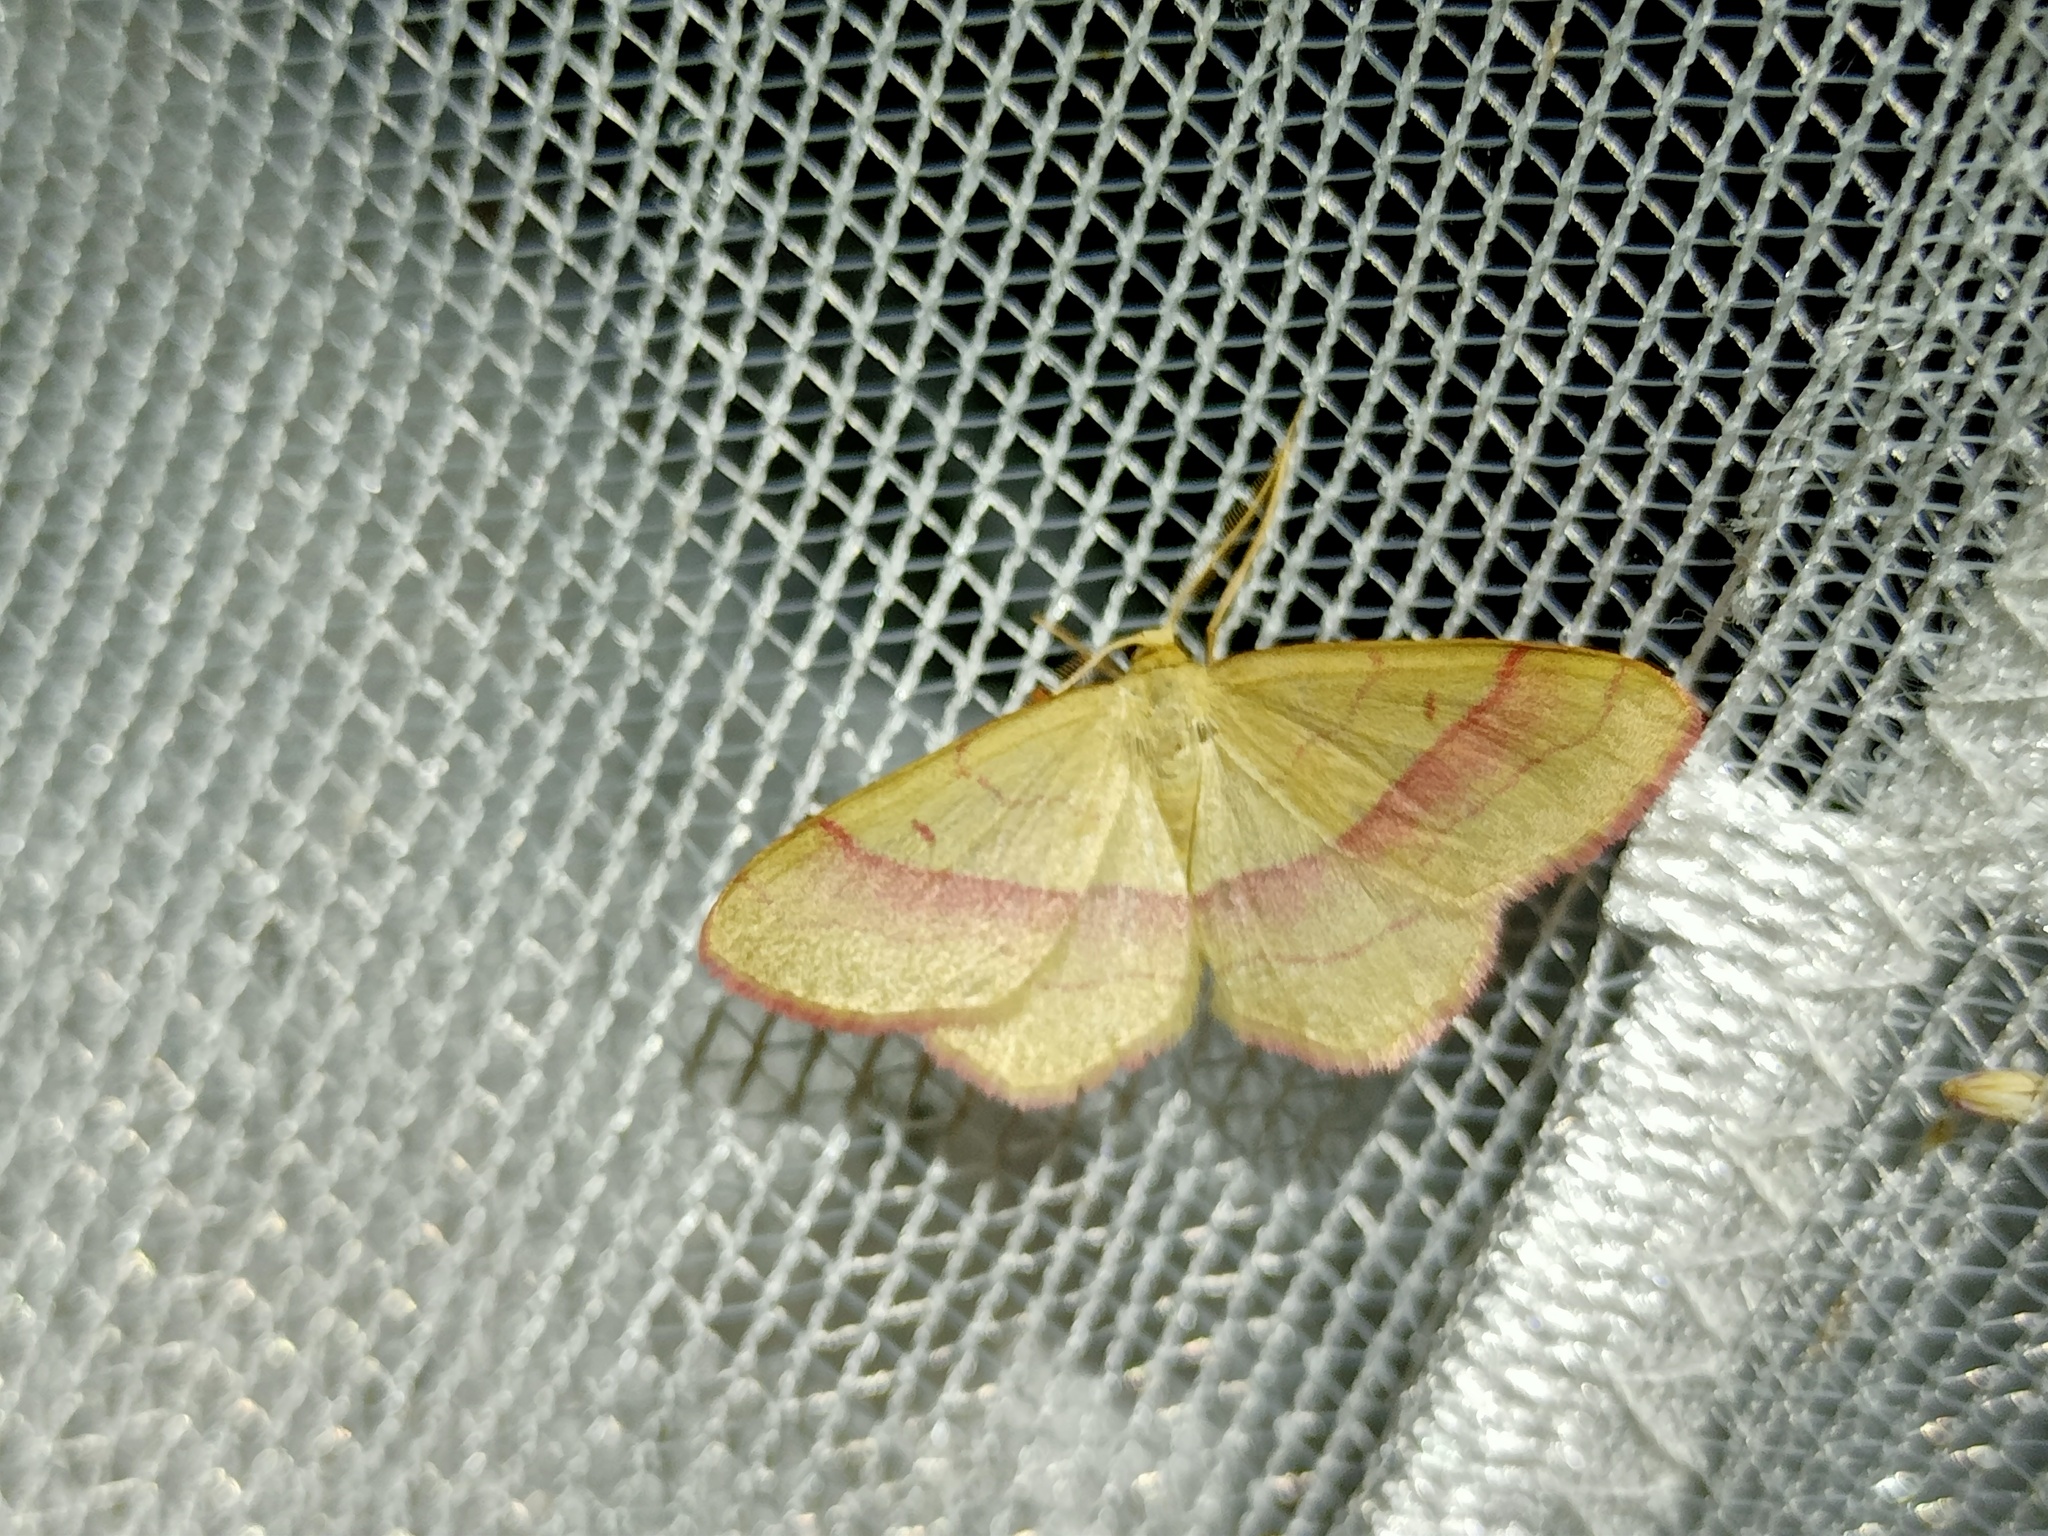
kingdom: Animalia
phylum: Arthropoda
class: Insecta
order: Lepidoptera
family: Geometridae
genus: Rhodostrophia
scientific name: Rhodostrophia vibicaria
